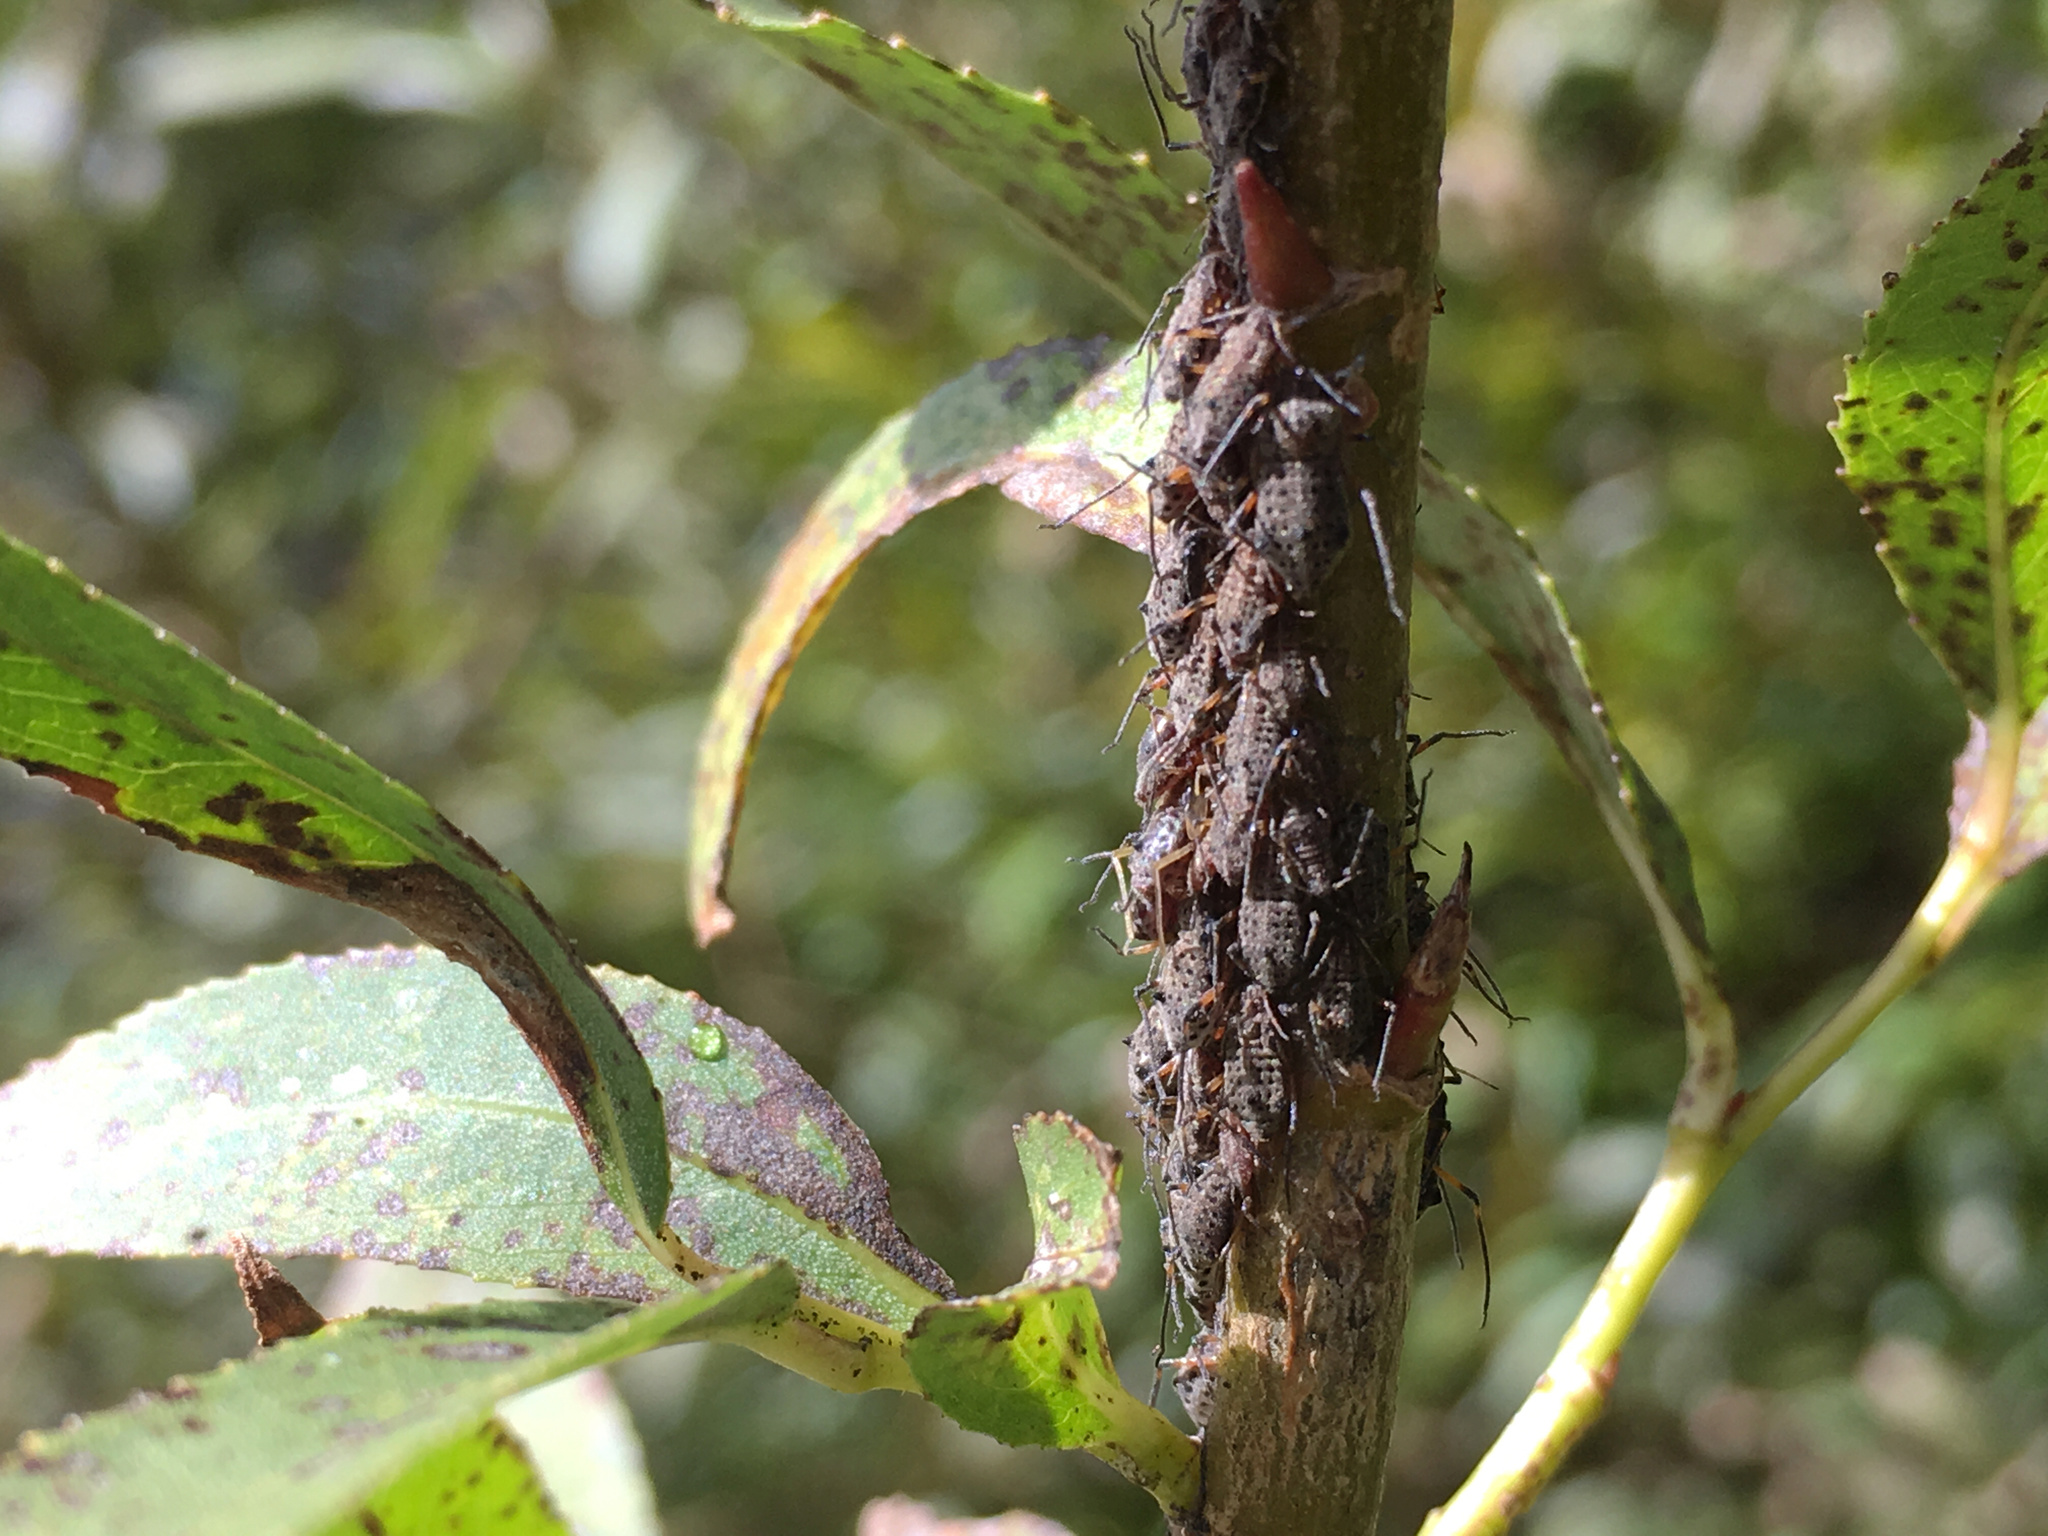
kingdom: Animalia
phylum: Arthropoda
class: Insecta
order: Hemiptera
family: Aphididae
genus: Tuberolachnus
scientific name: Tuberolachnus salignus
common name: Giant willow aphid
